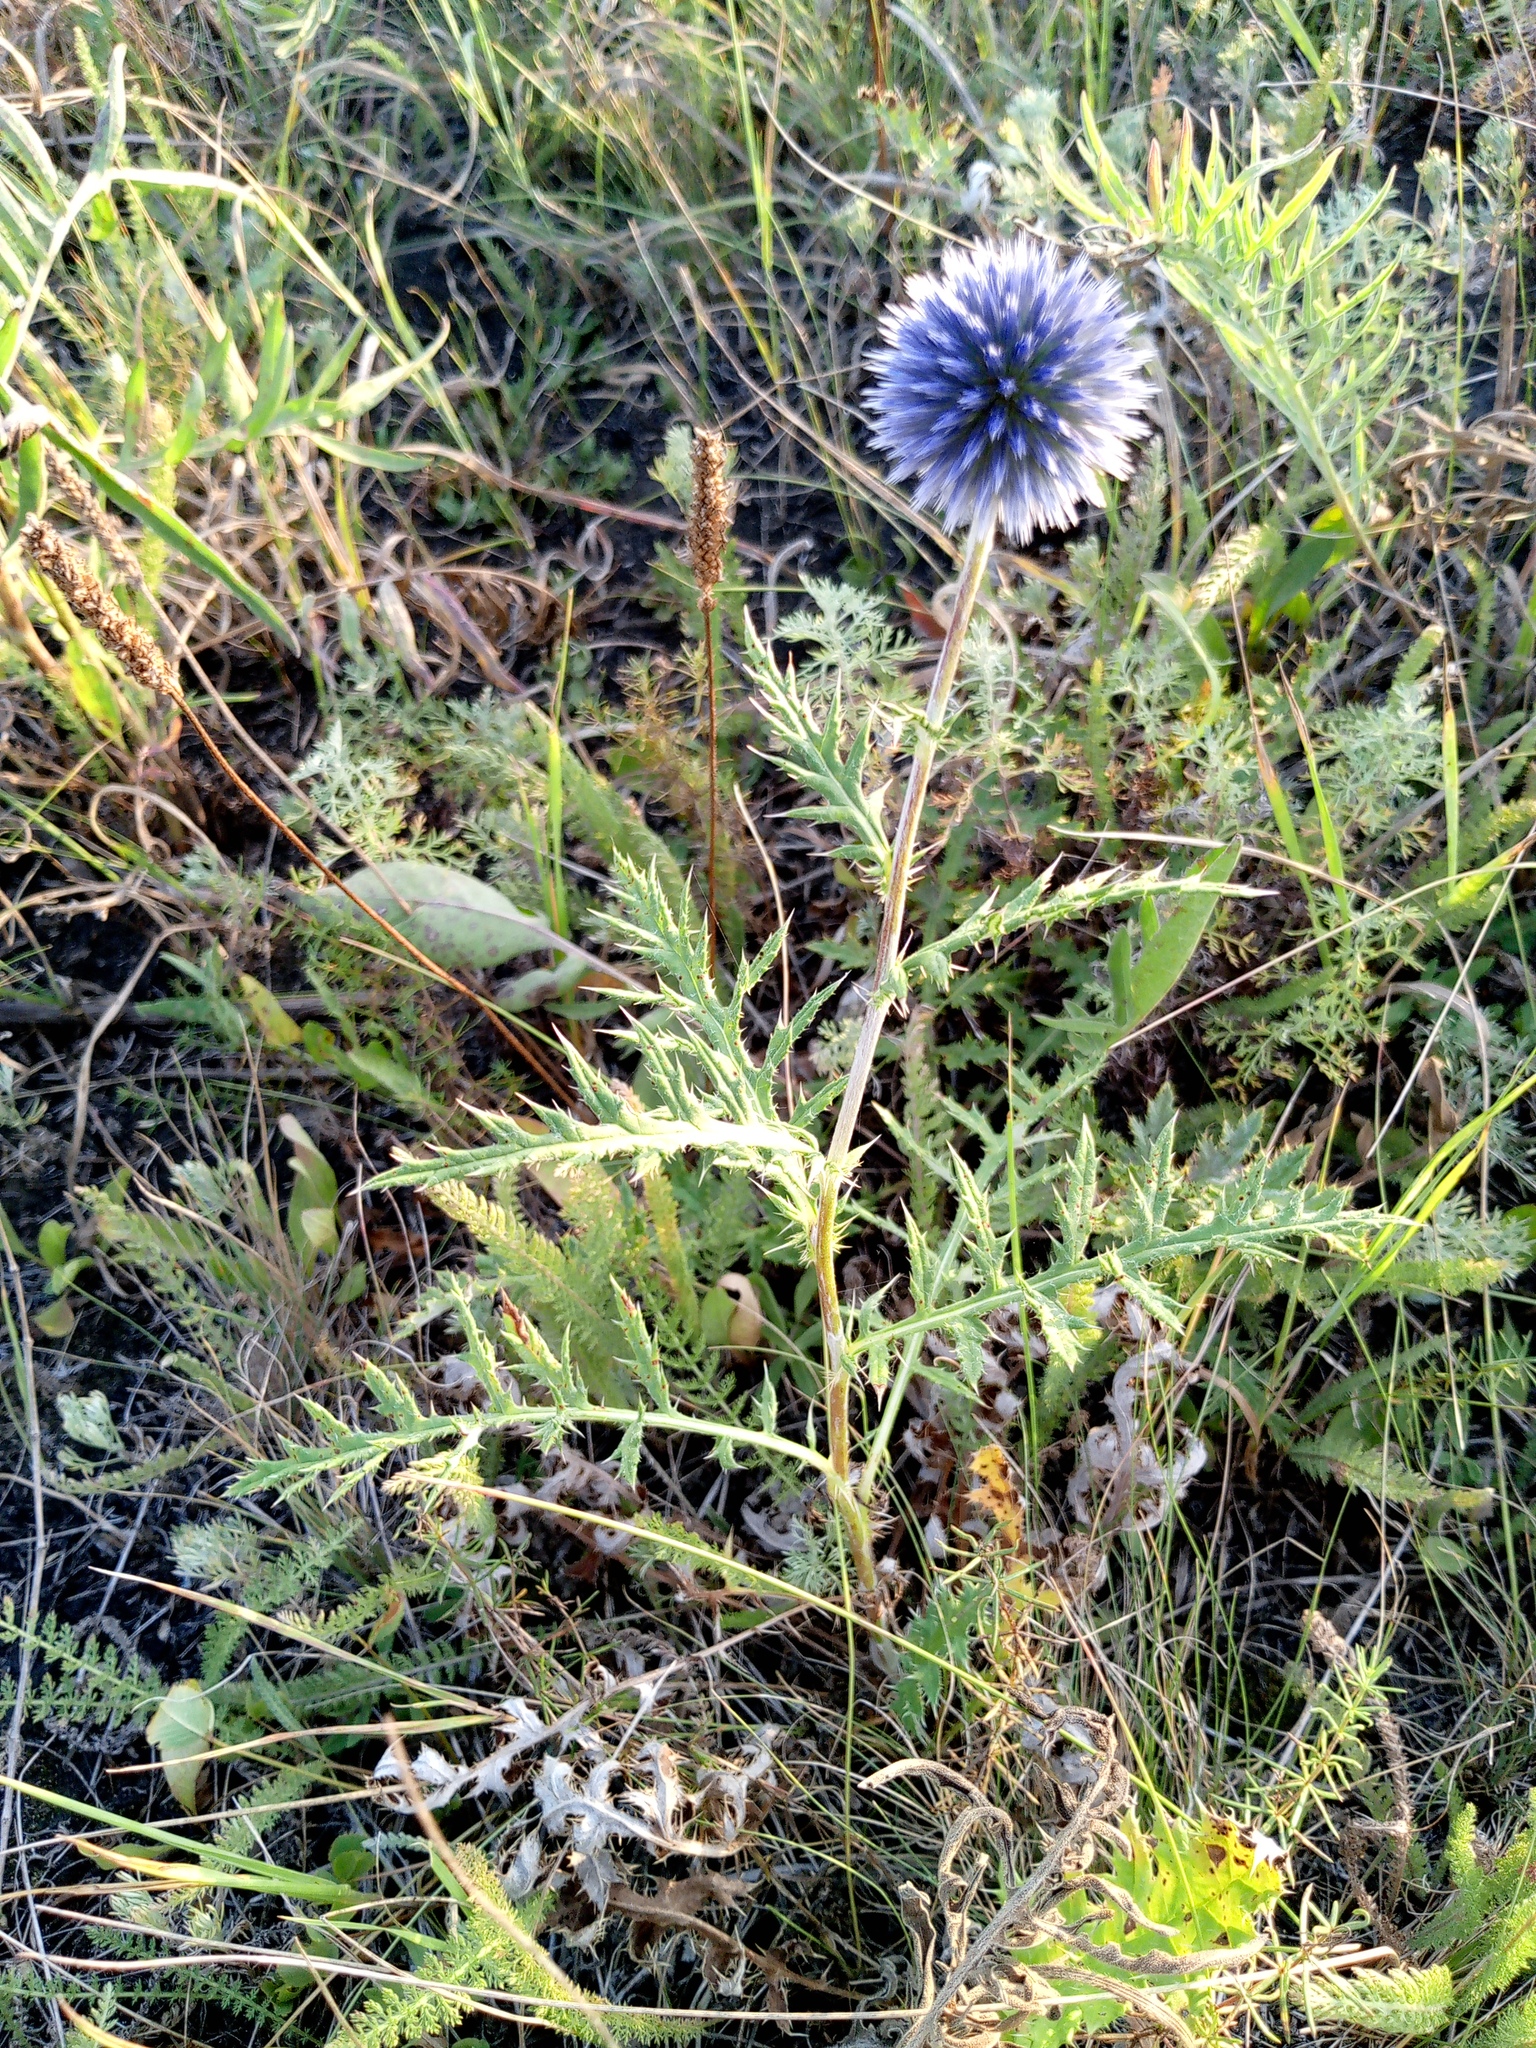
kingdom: Plantae
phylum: Tracheophyta
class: Magnoliopsida
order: Asterales
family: Asteraceae
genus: Echinops
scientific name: Echinops ritro
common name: Globe thistle
